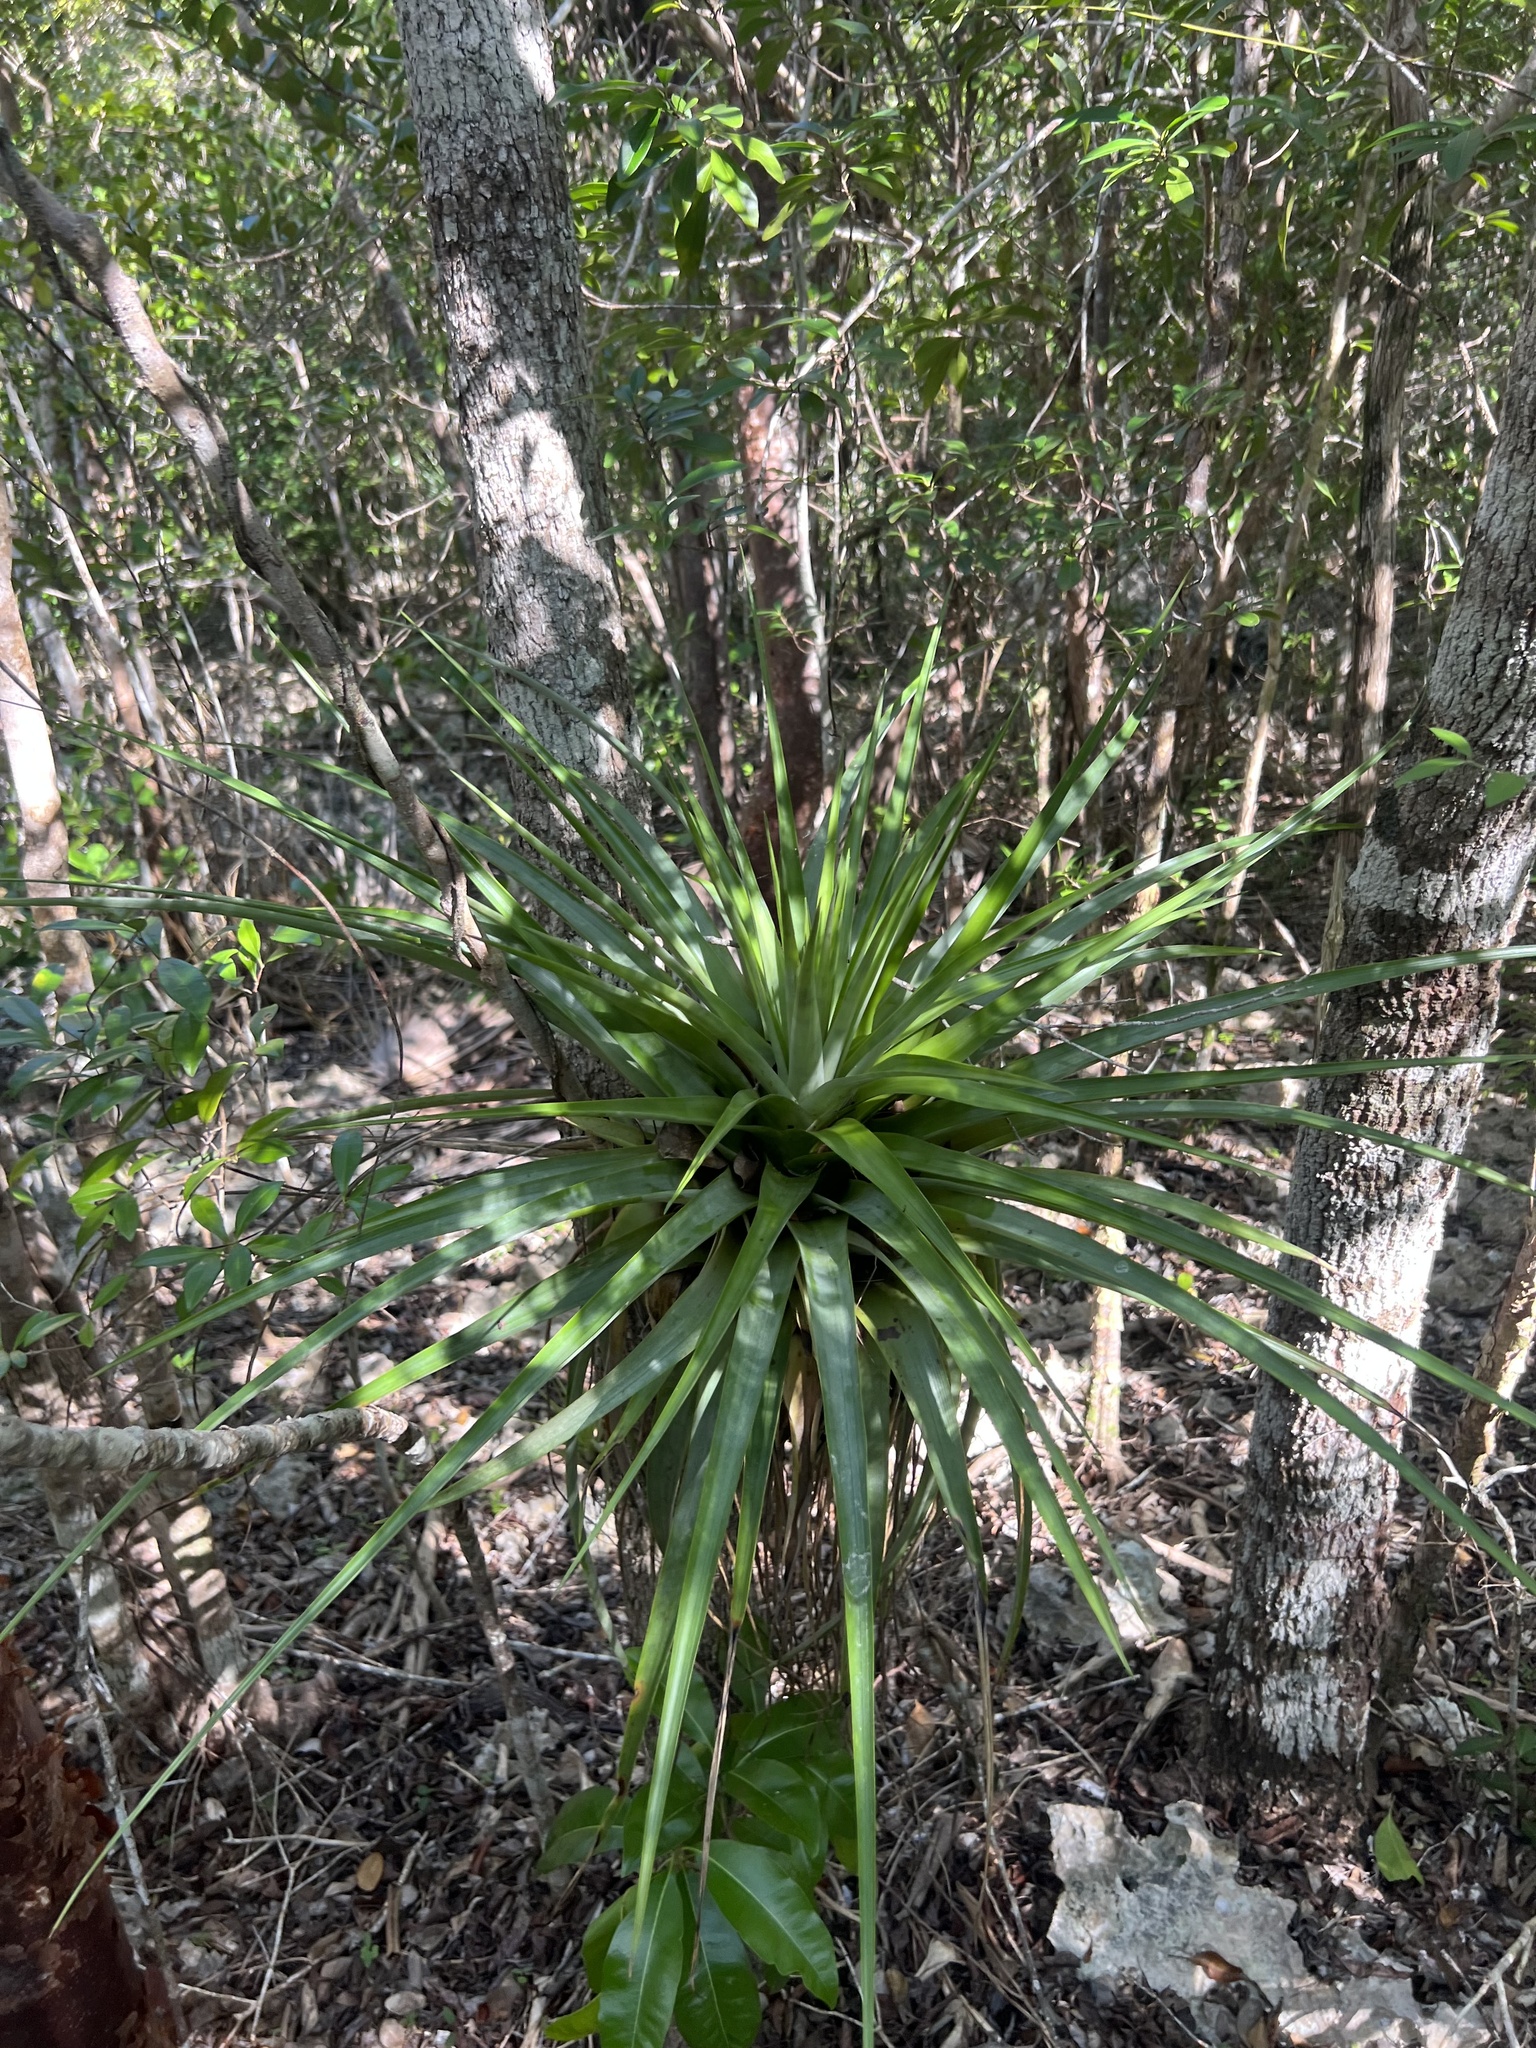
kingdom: Plantae
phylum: Tracheophyta
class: Liliopsida
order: Poales
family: Bromeliaceae
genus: Tillandsia
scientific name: Tillandsia utriculata
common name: Wild pine
